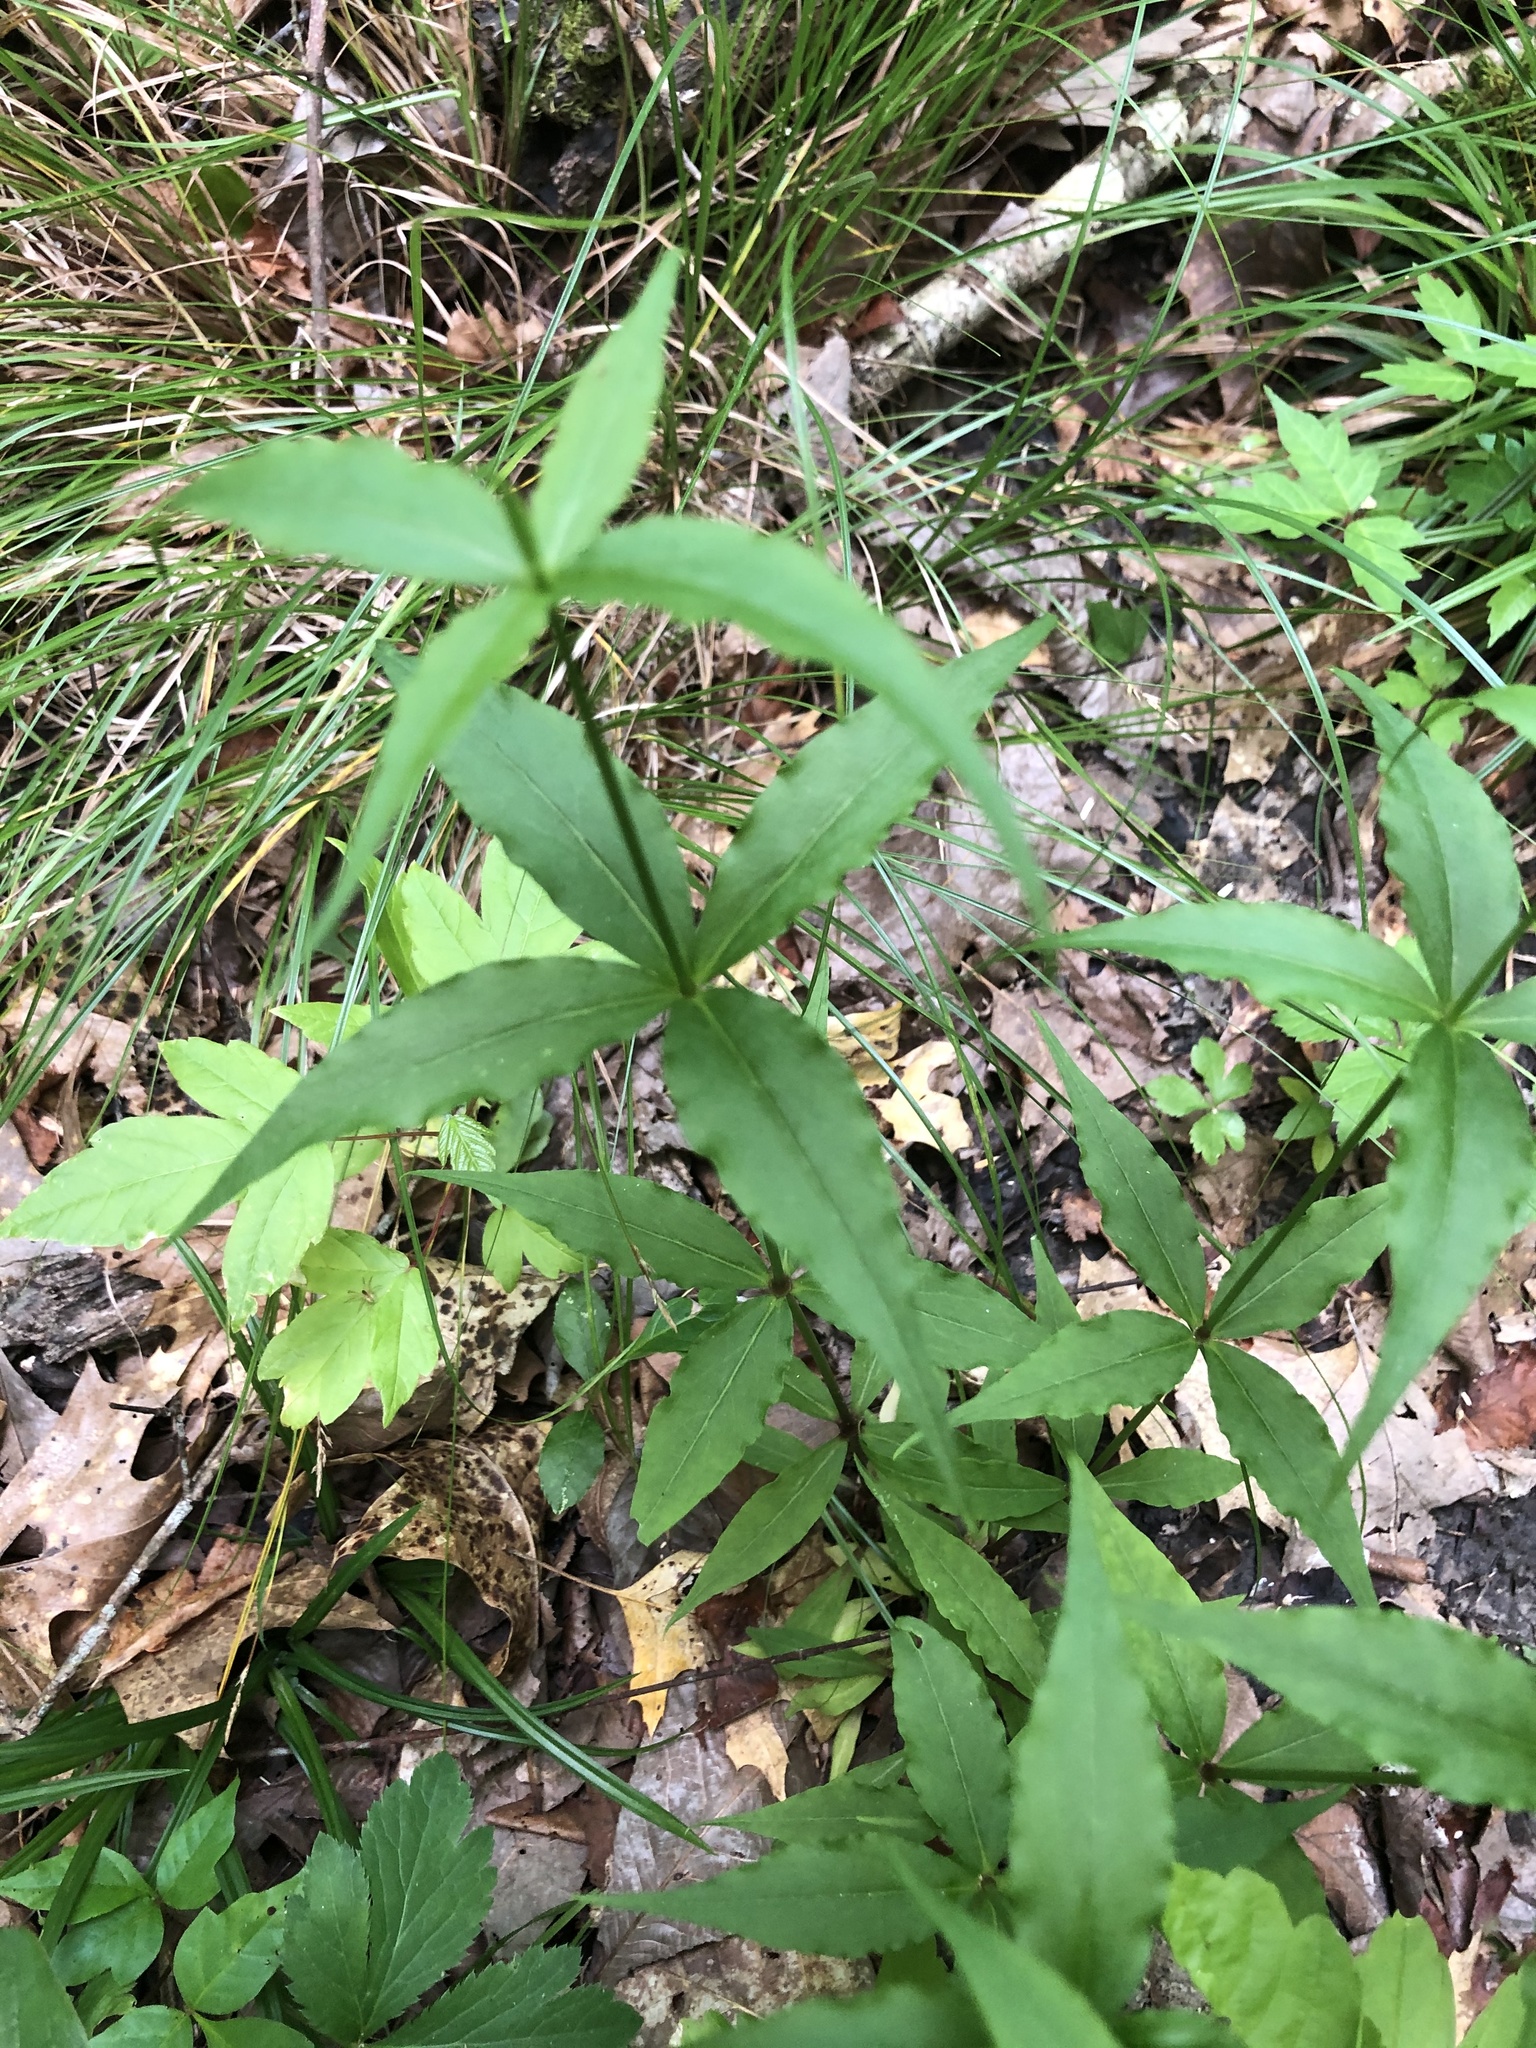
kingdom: Plantae
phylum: Tracheophyta
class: Magnoliopsida
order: Caryophyllales
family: Caryophyllaceae
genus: Silene
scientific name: Silene stellata
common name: Starry campion
